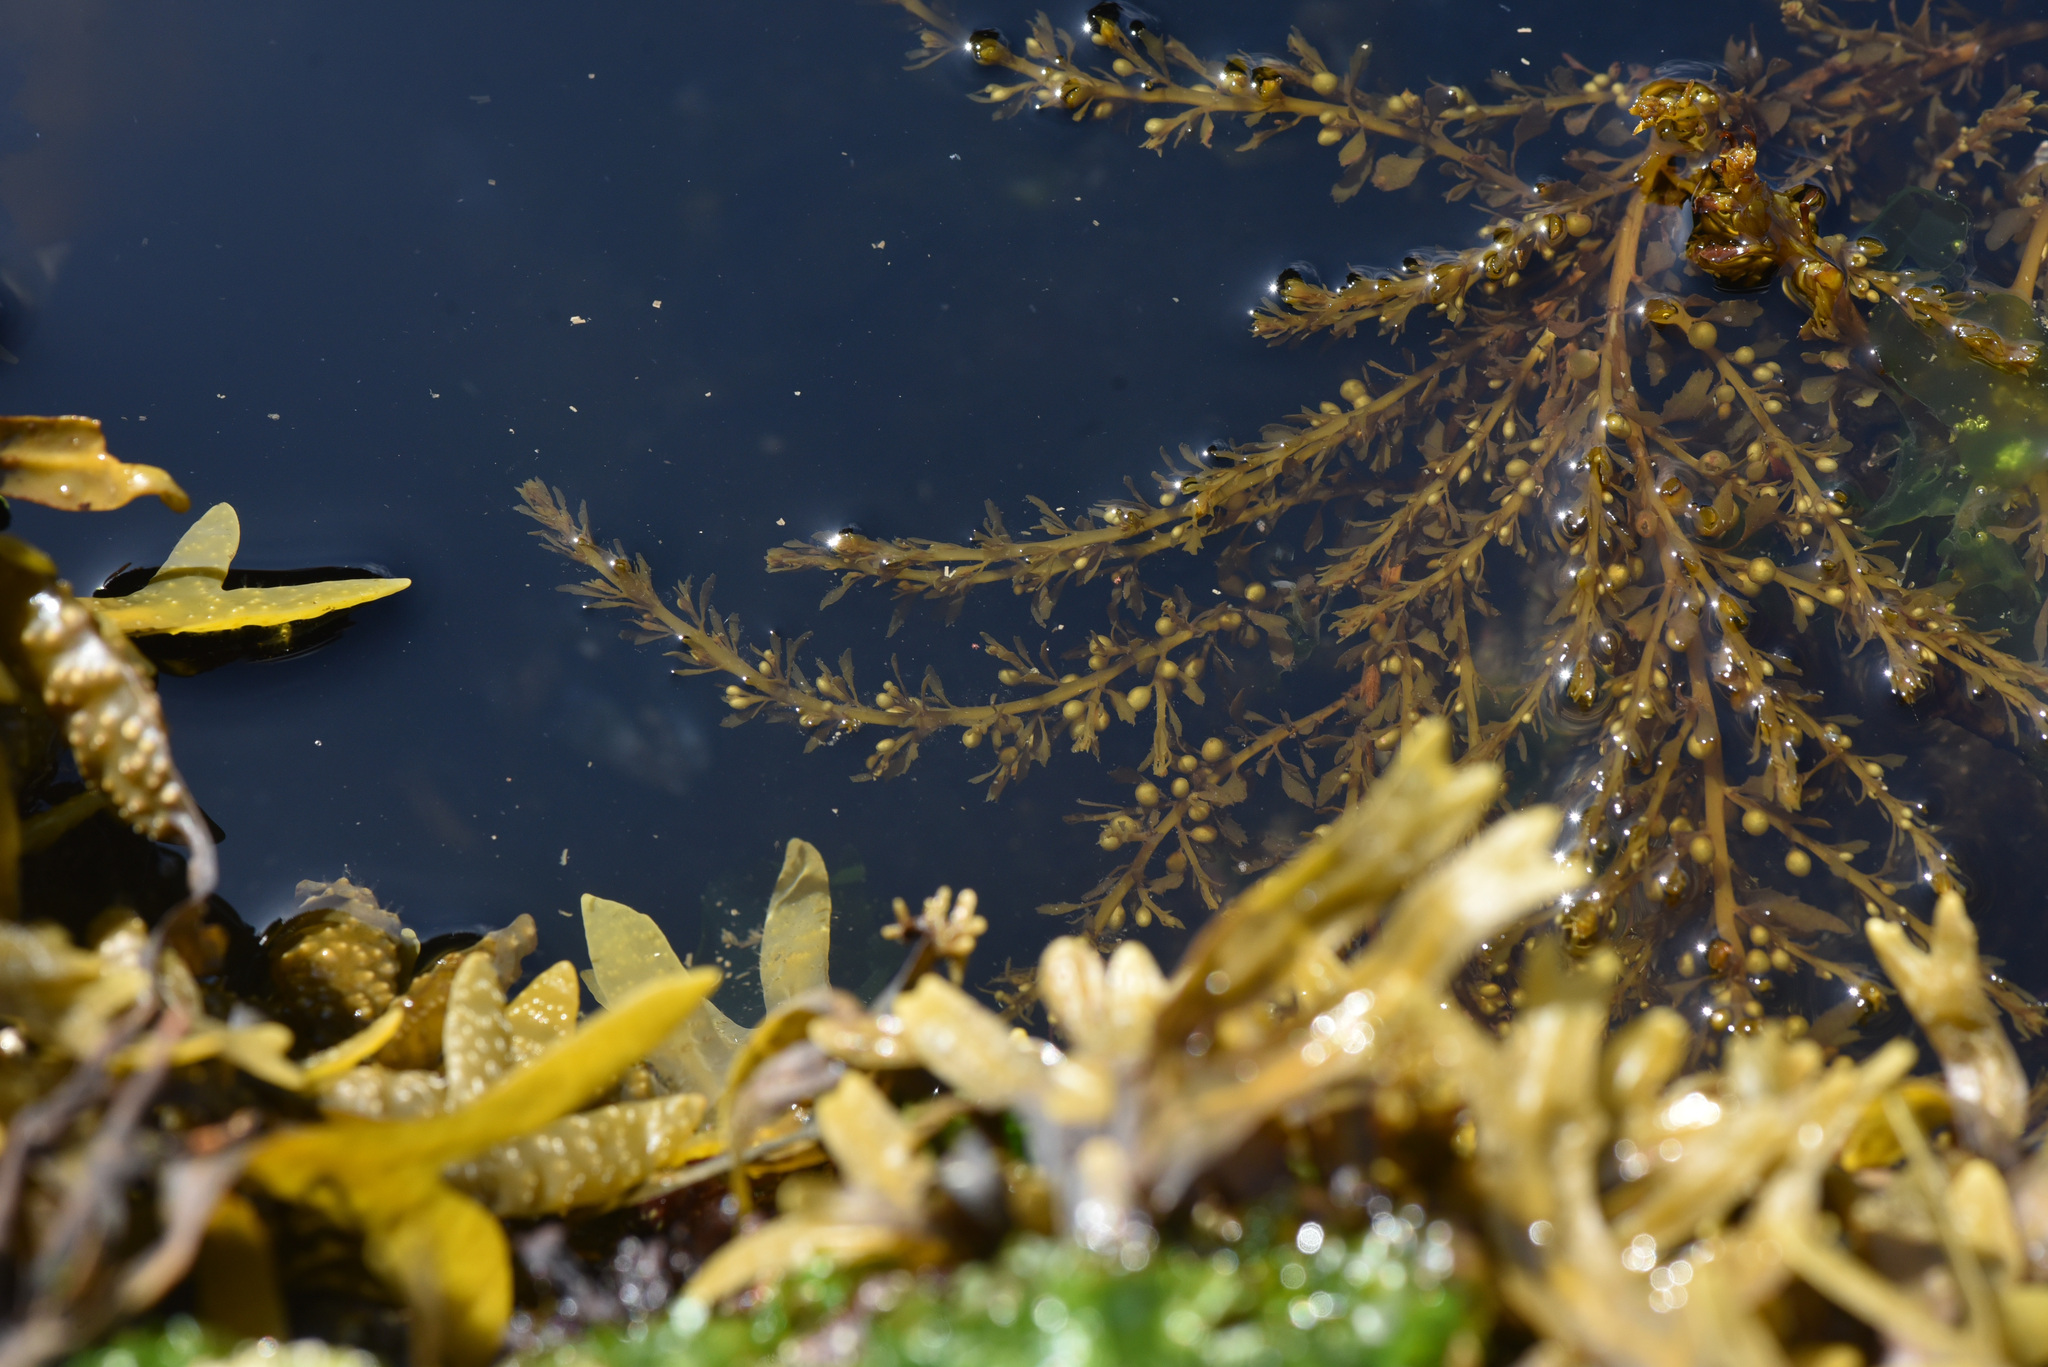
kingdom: Chromista
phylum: Ochrophyta
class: Phaeophyceae
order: Fucales
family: Sargassaceae
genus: Sargassum
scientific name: Sargassum muticum
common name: Japweed
